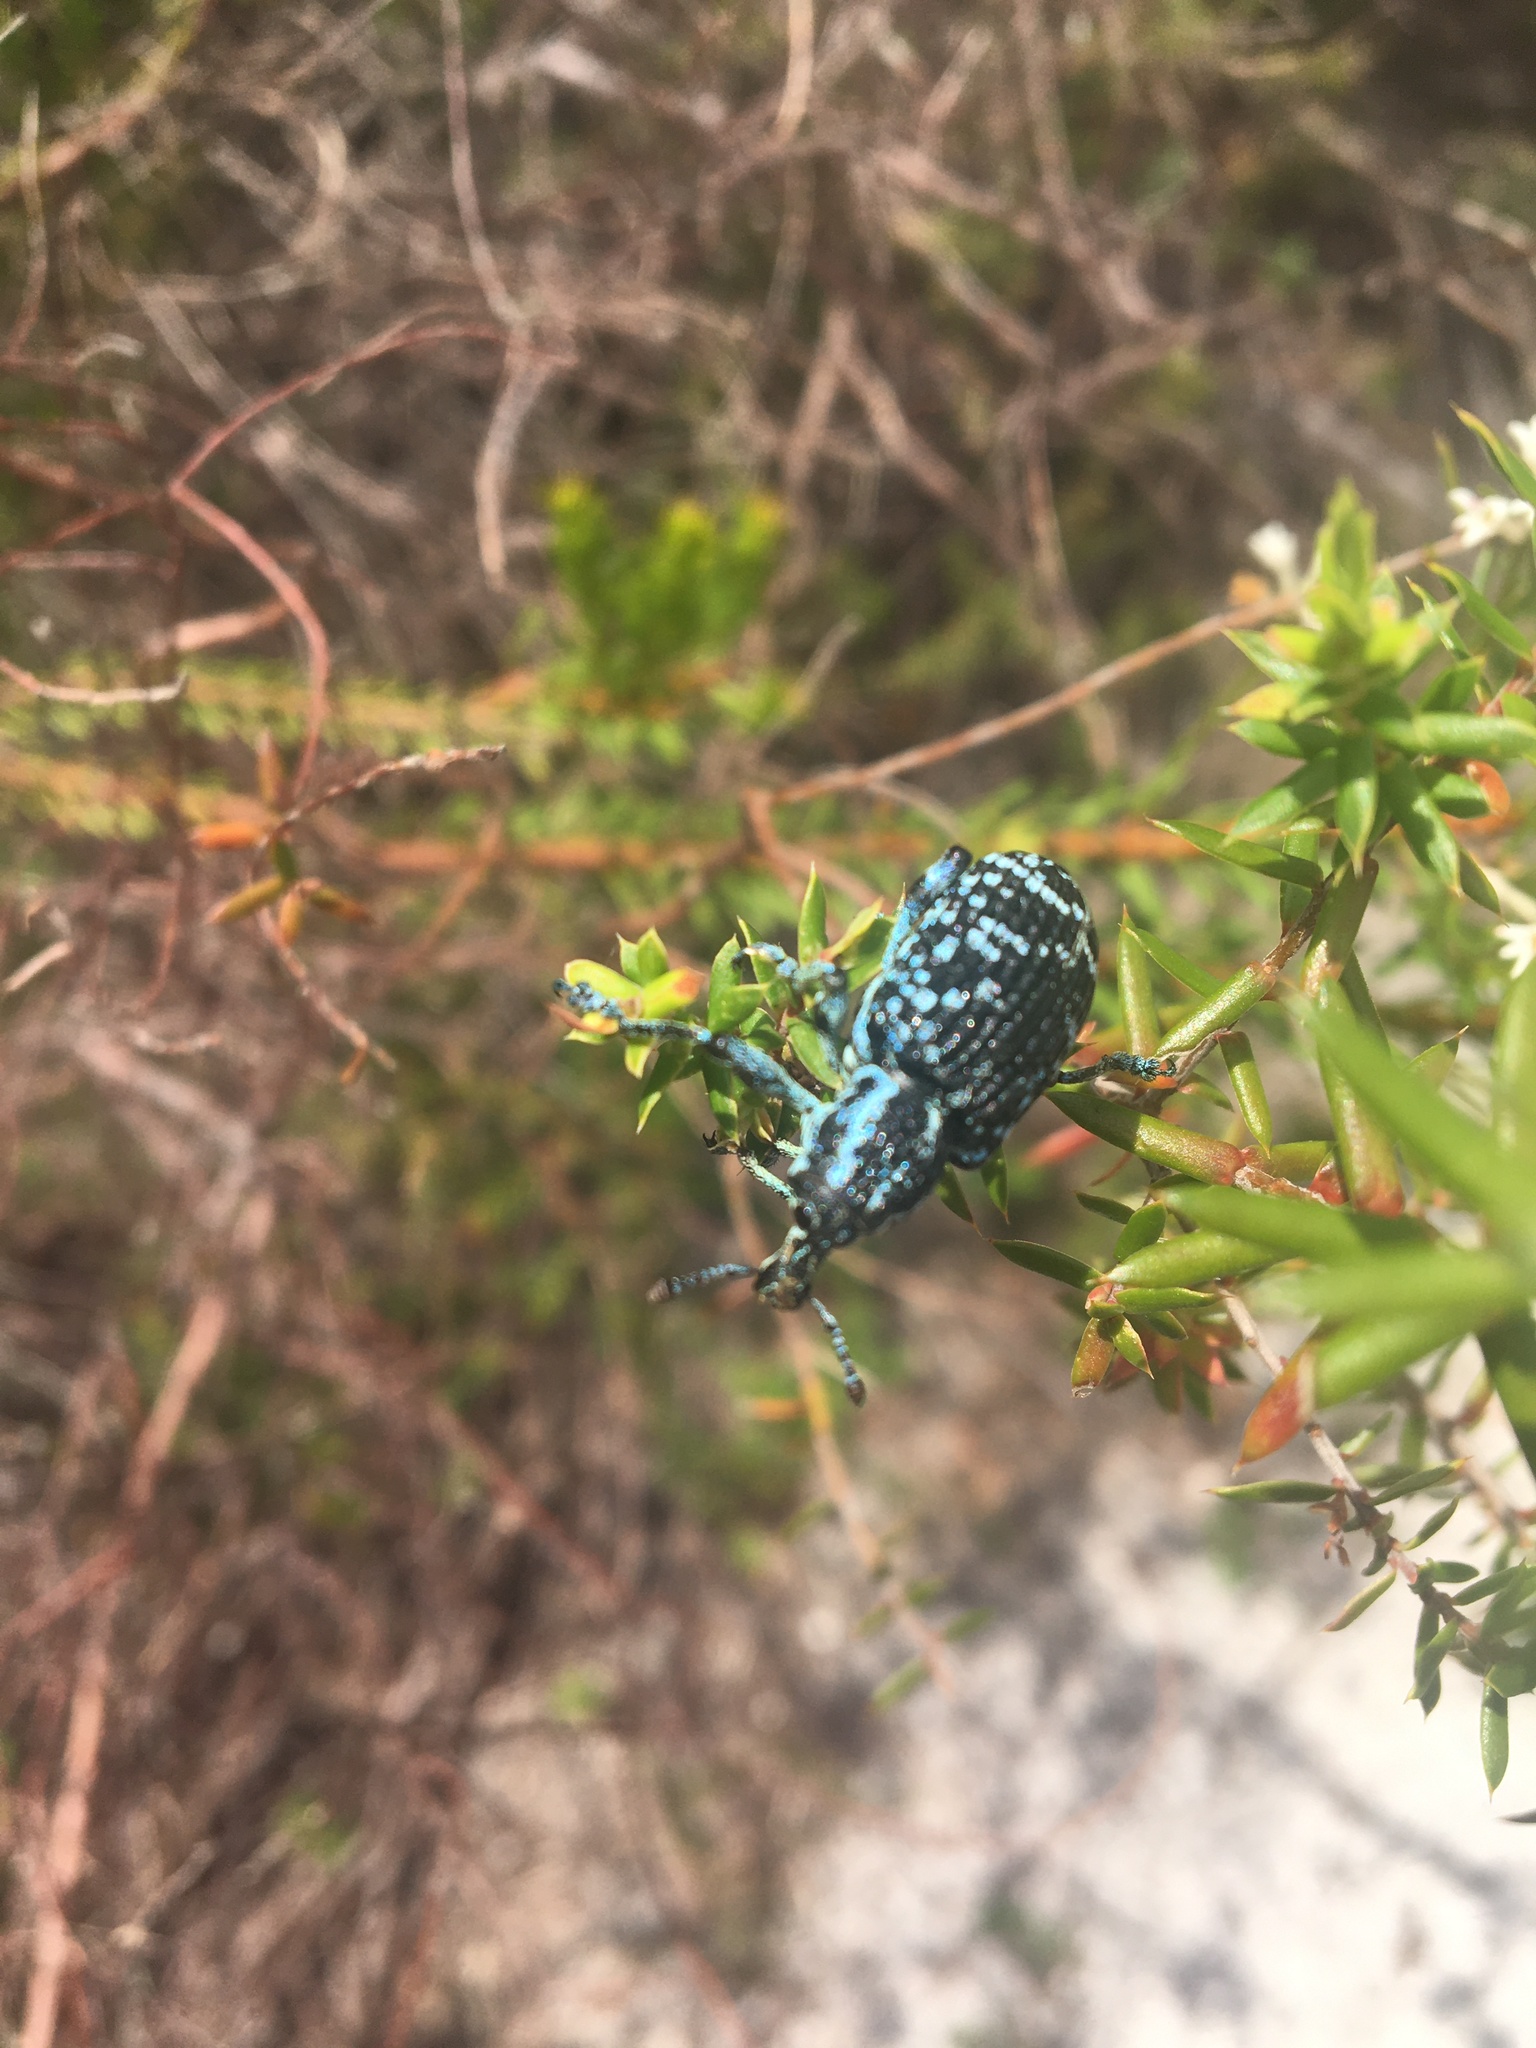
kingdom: Animalia
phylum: Arthropoda
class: Insecta
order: Coleoptera
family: Curculionidae
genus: Chrysolopus
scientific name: Chrysolopus spectabilis
